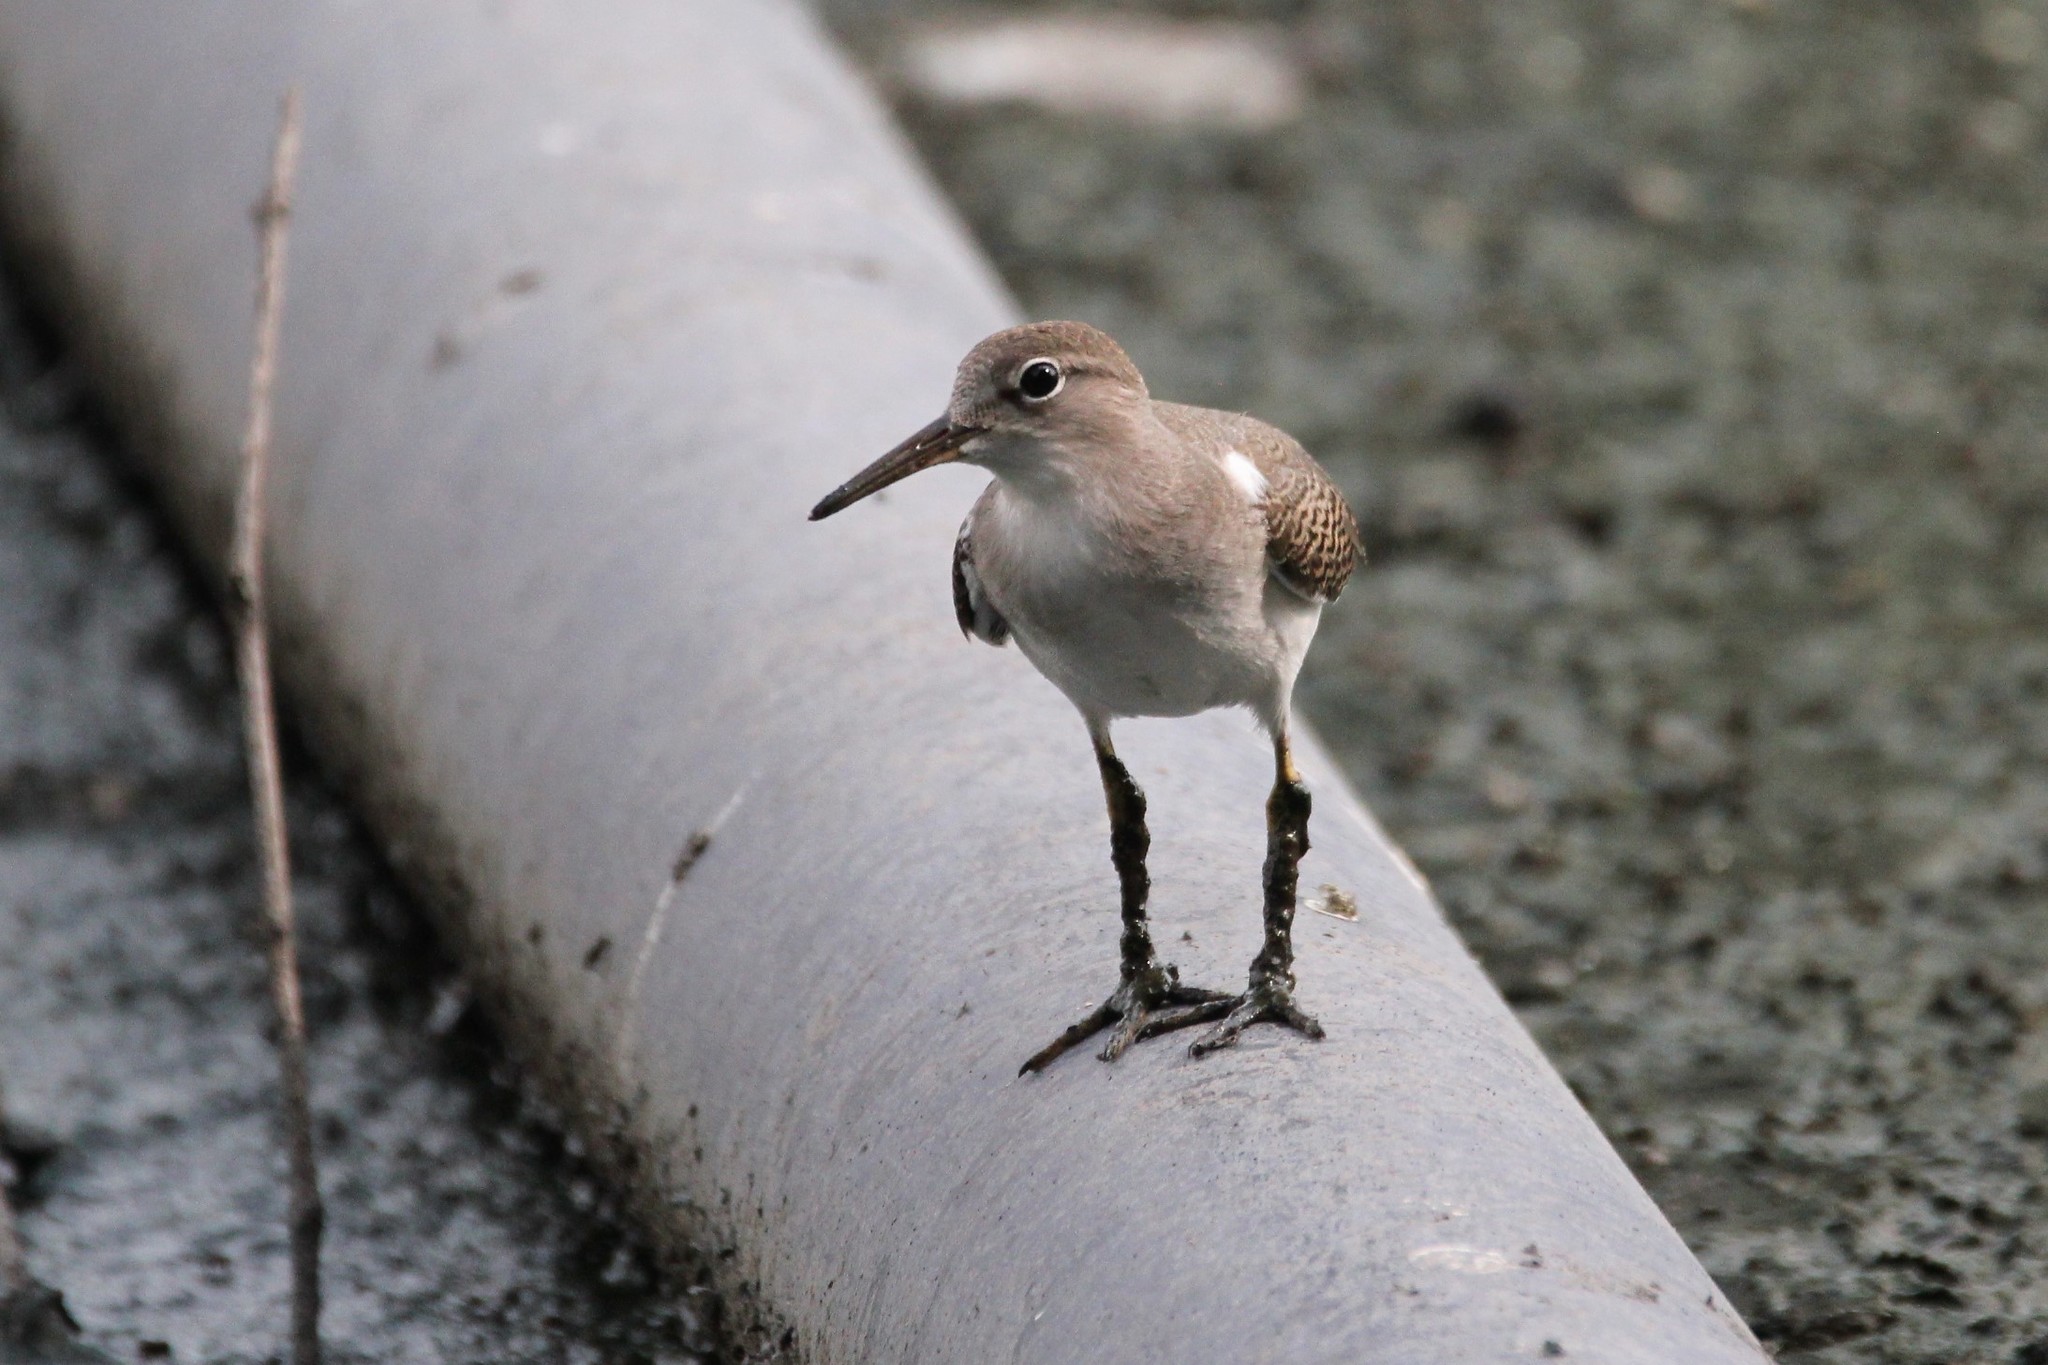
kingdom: Animalia
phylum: Chordata
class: Aves
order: Charadriiformes
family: Scolopacidae
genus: Actitis
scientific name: Actitis macularius
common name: Spotted sandpiper
